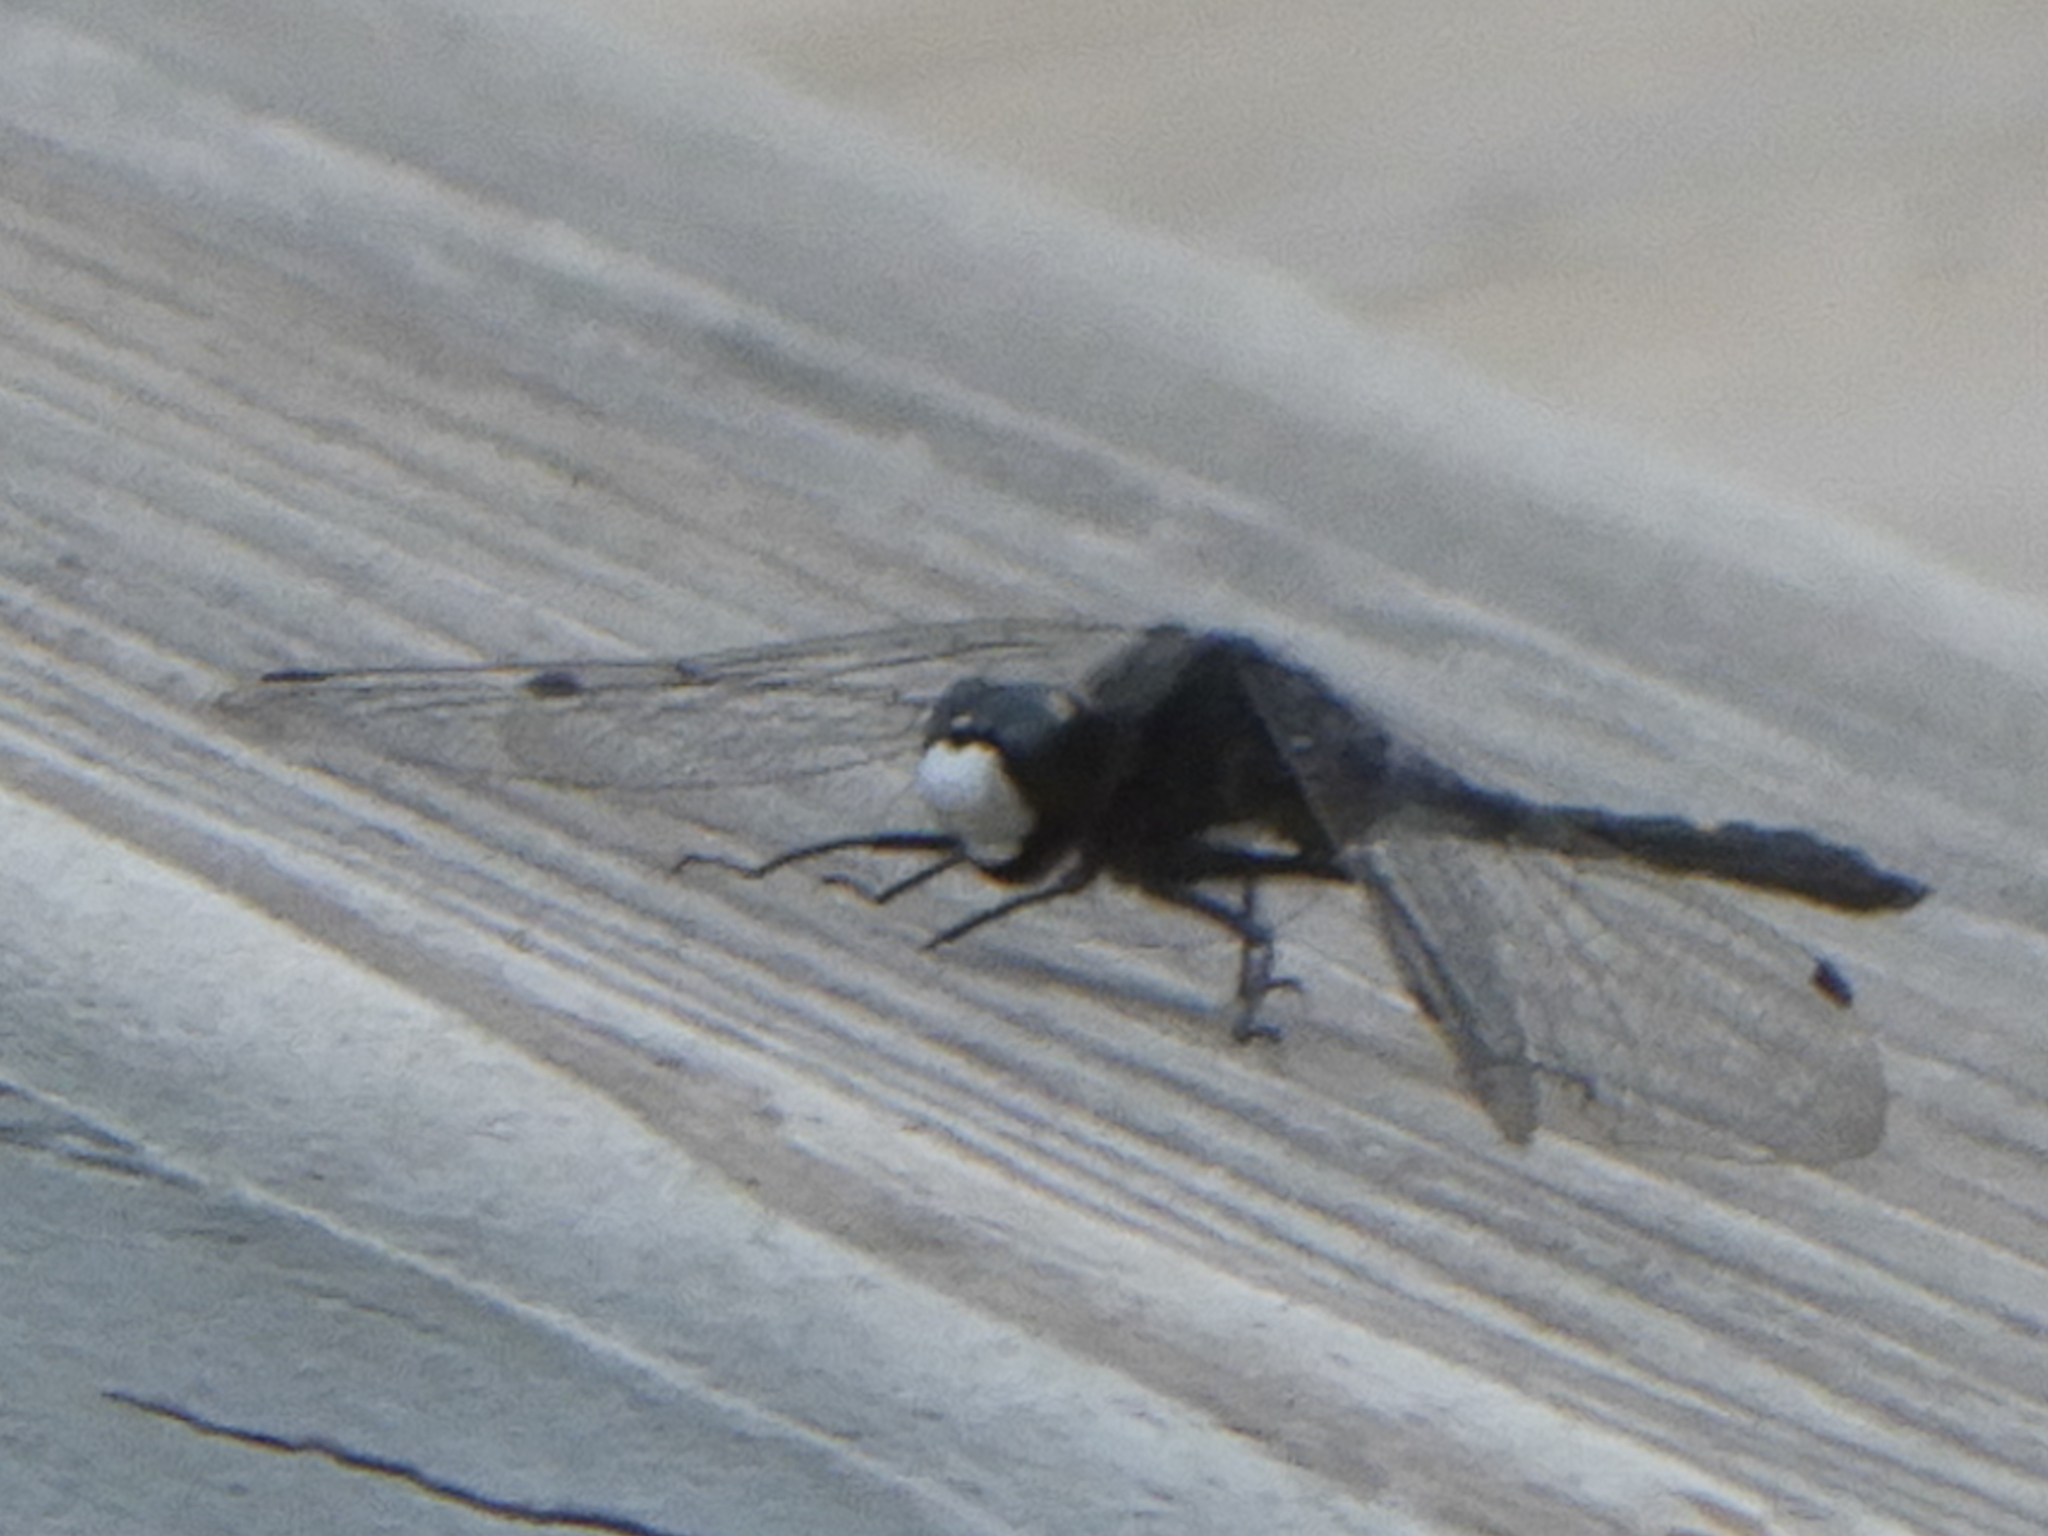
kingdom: Animalia
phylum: Arthropoda
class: Insecta
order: Odonata
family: Libellulidae
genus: Leucorrhinia
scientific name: Leucorrhinia intacta
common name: Dot-tailed whiteface
